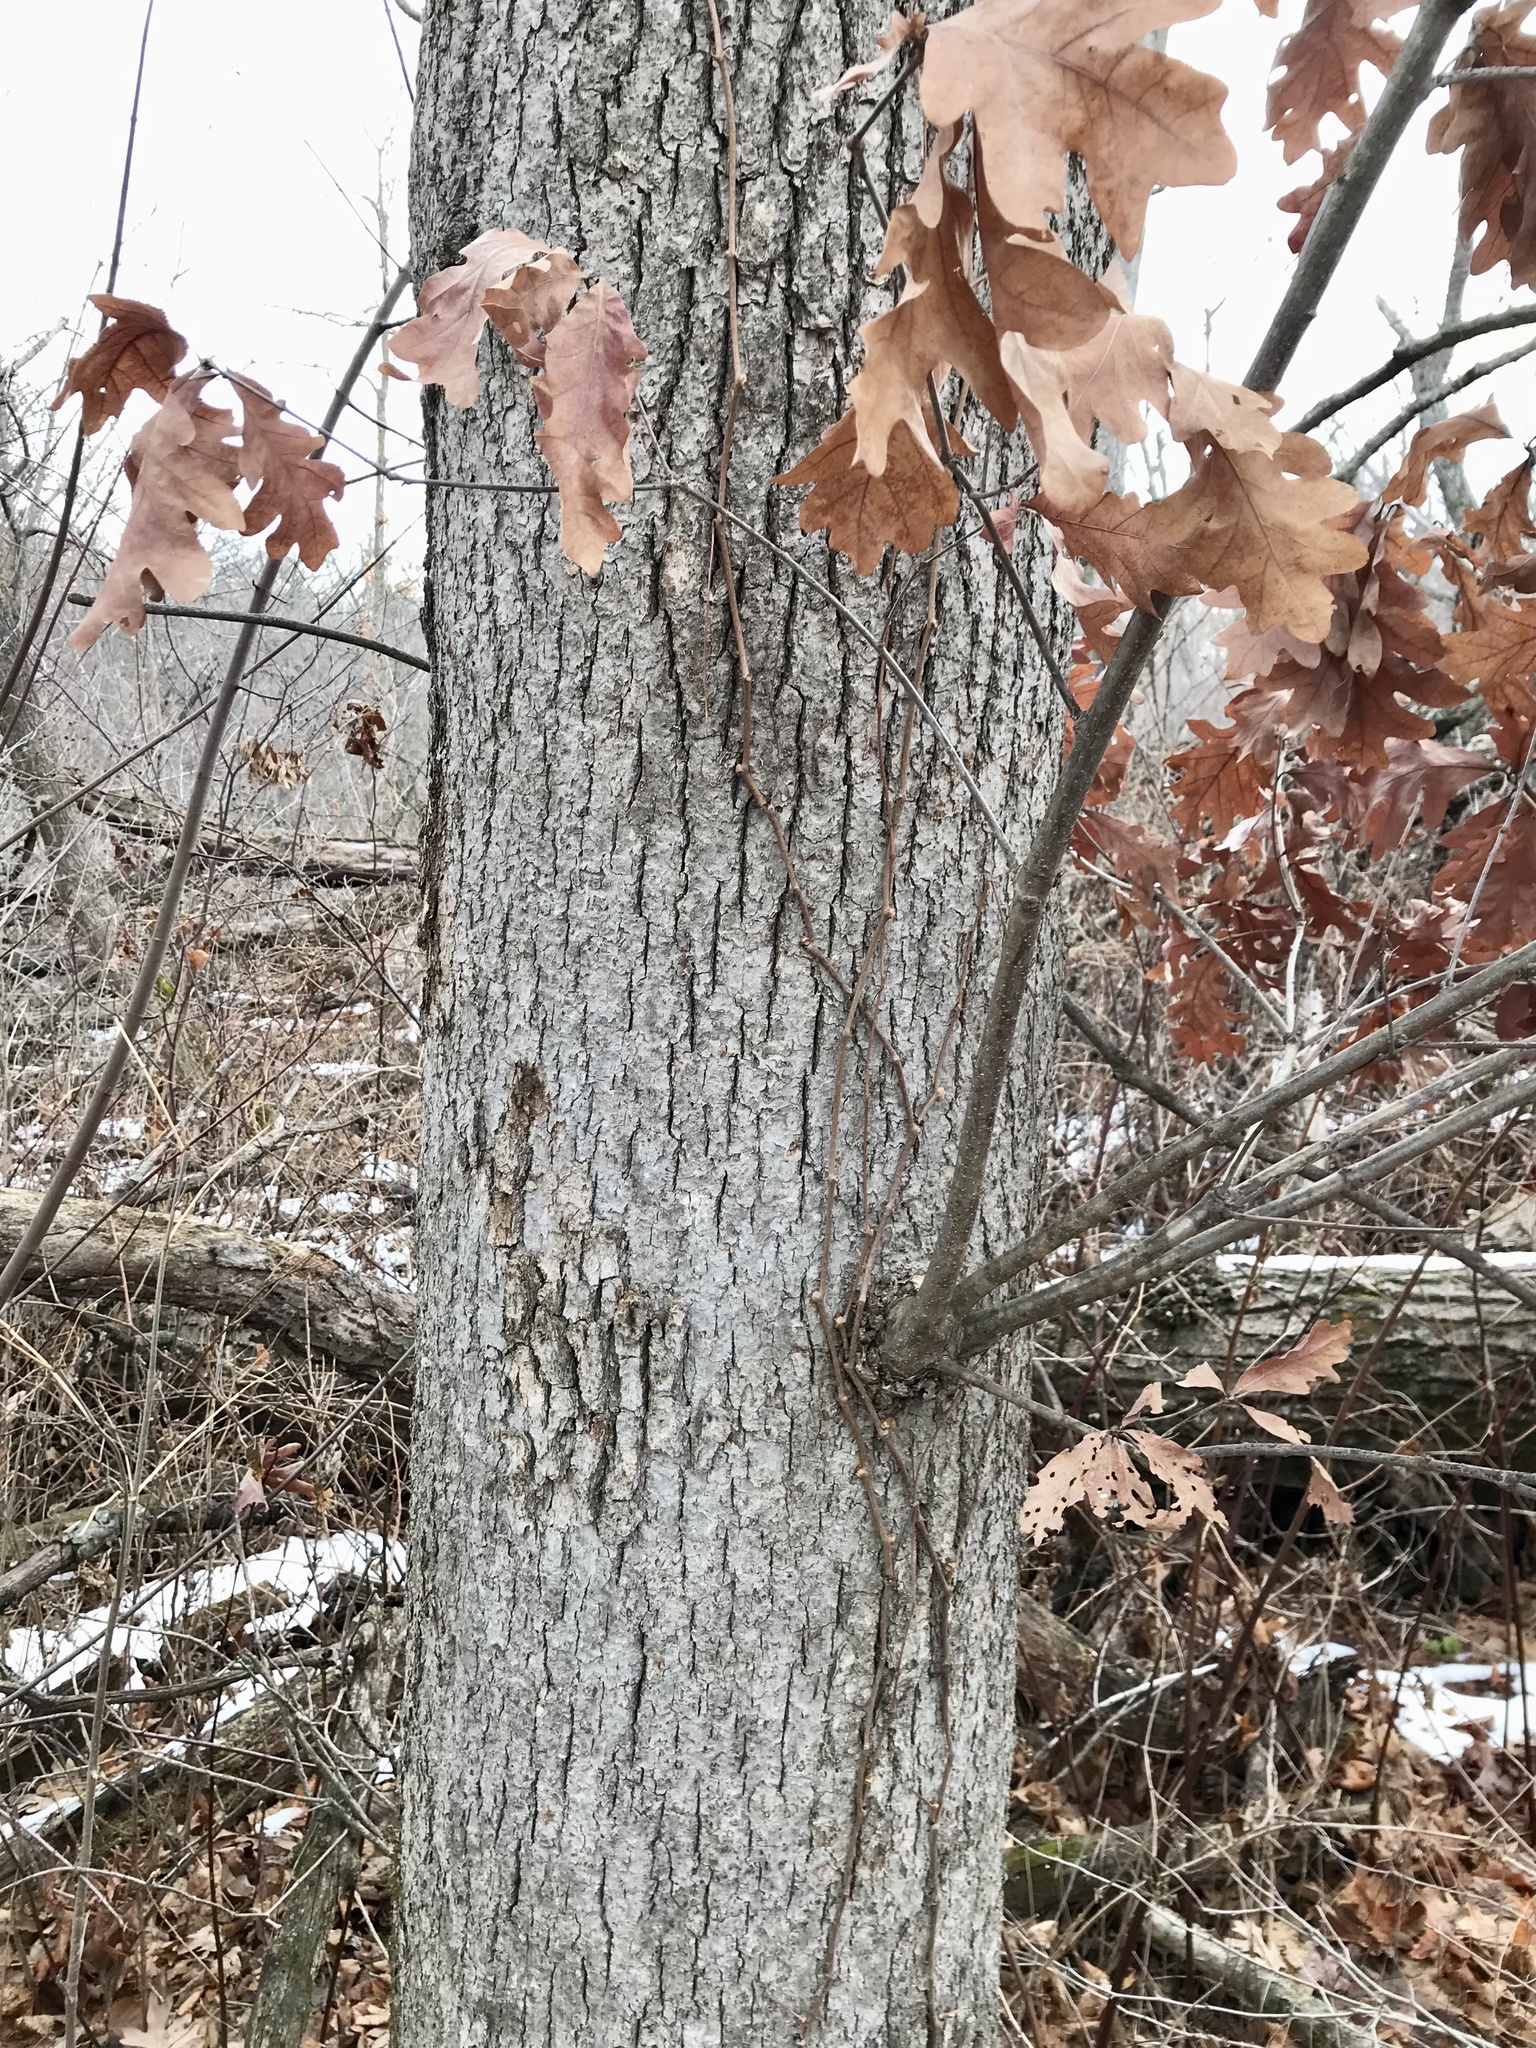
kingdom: Plantae
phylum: Tracheophyta
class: Magnoliopsida
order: Fagales
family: Fagaceae
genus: Quercus
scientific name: Quercus alba
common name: White oak
